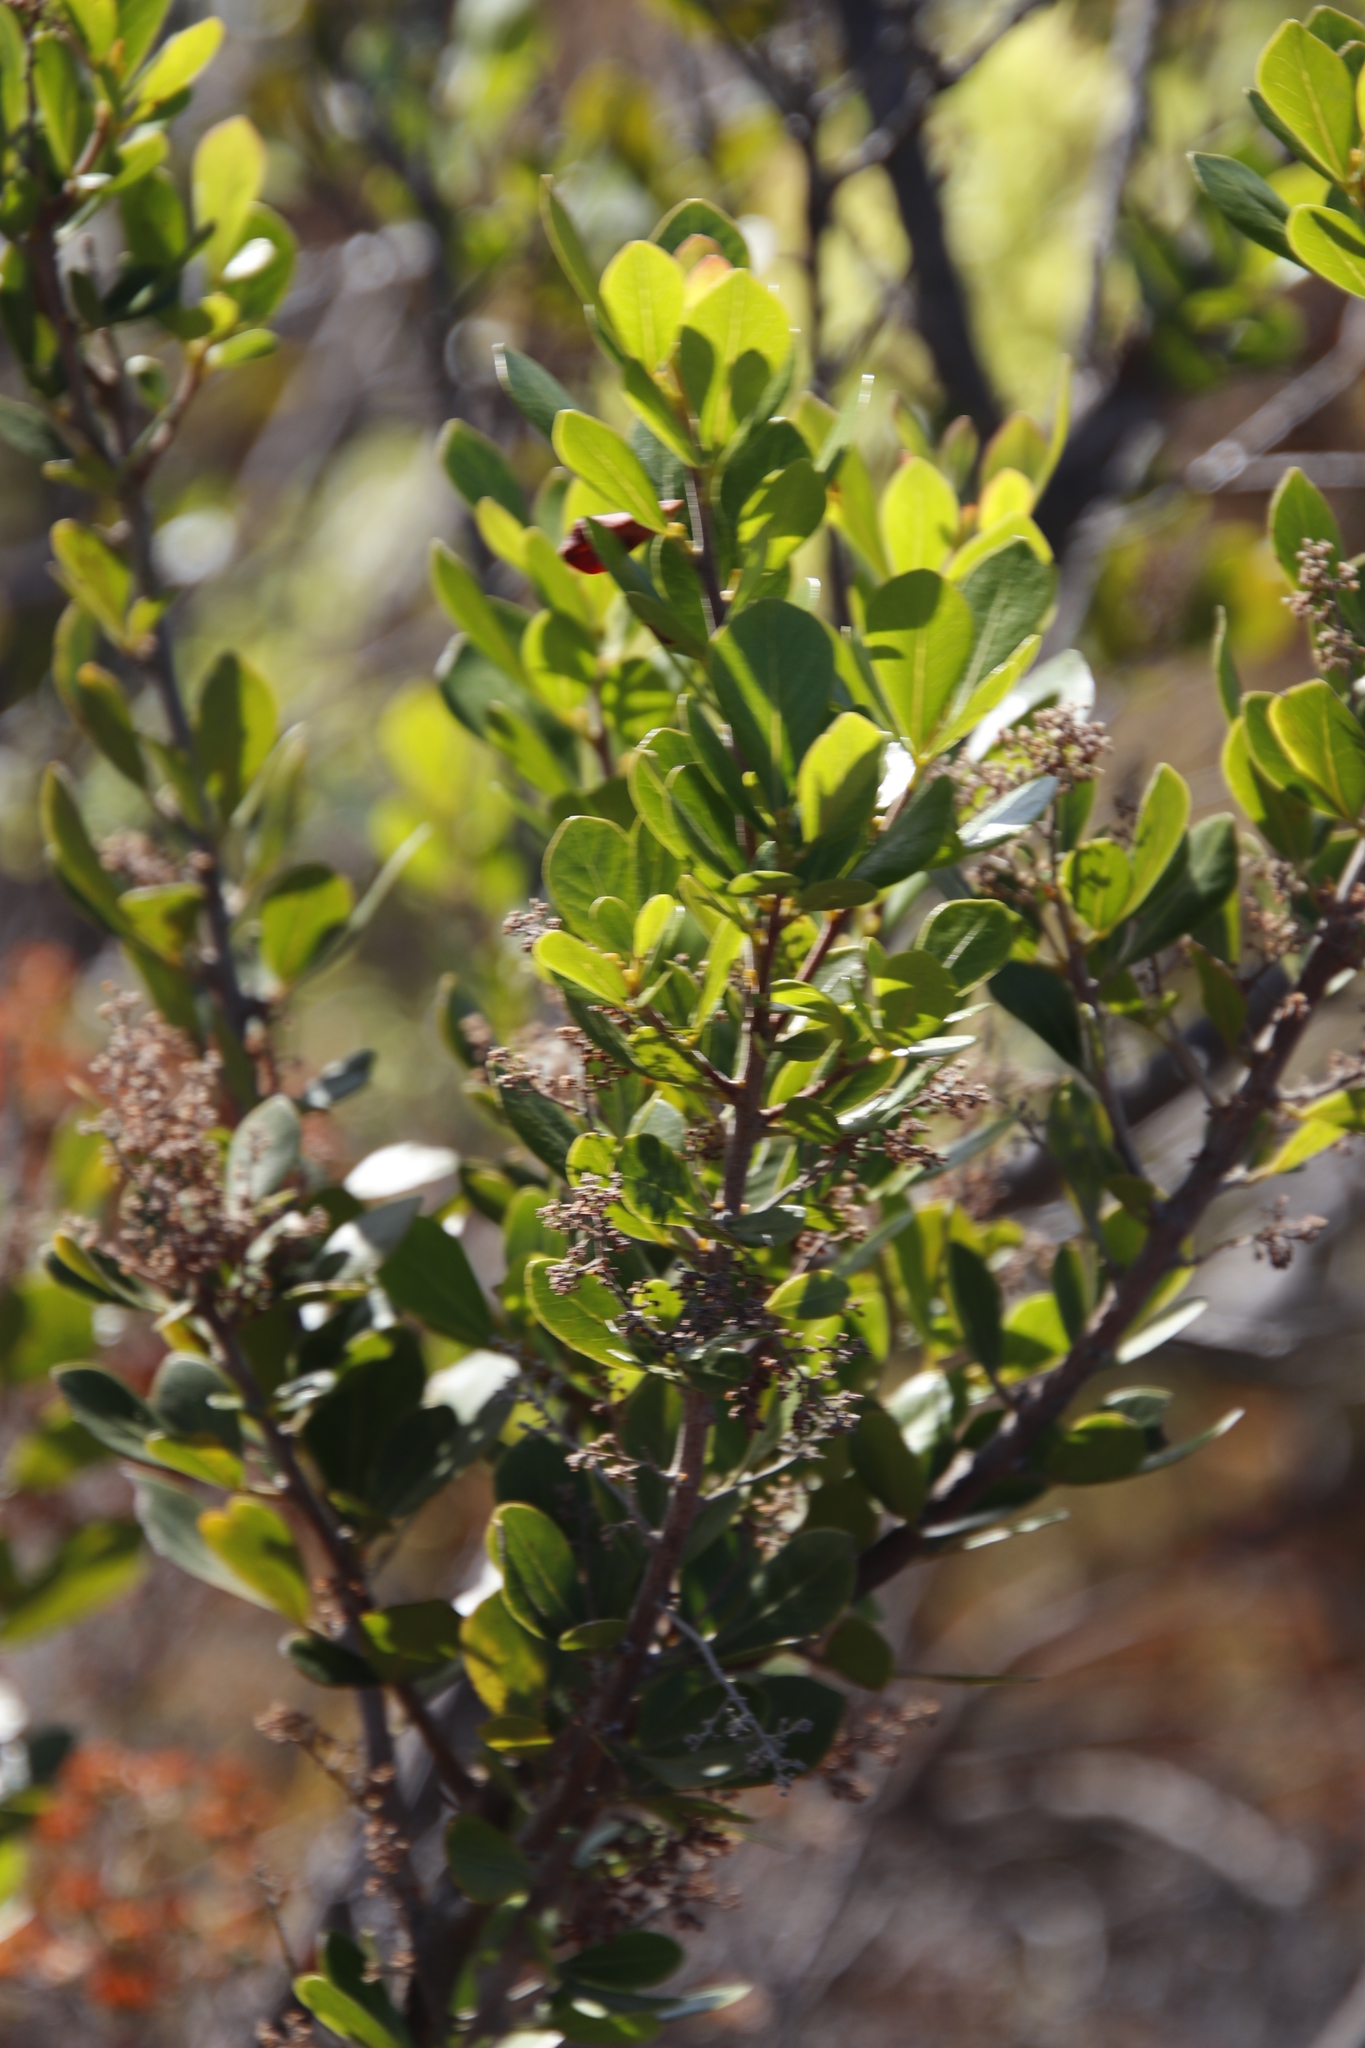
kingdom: Plantae
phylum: Tracheophyta
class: Magnoliopsida
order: Sapindales
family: Anacardiaceae
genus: Searsia
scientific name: Searsia lucida
